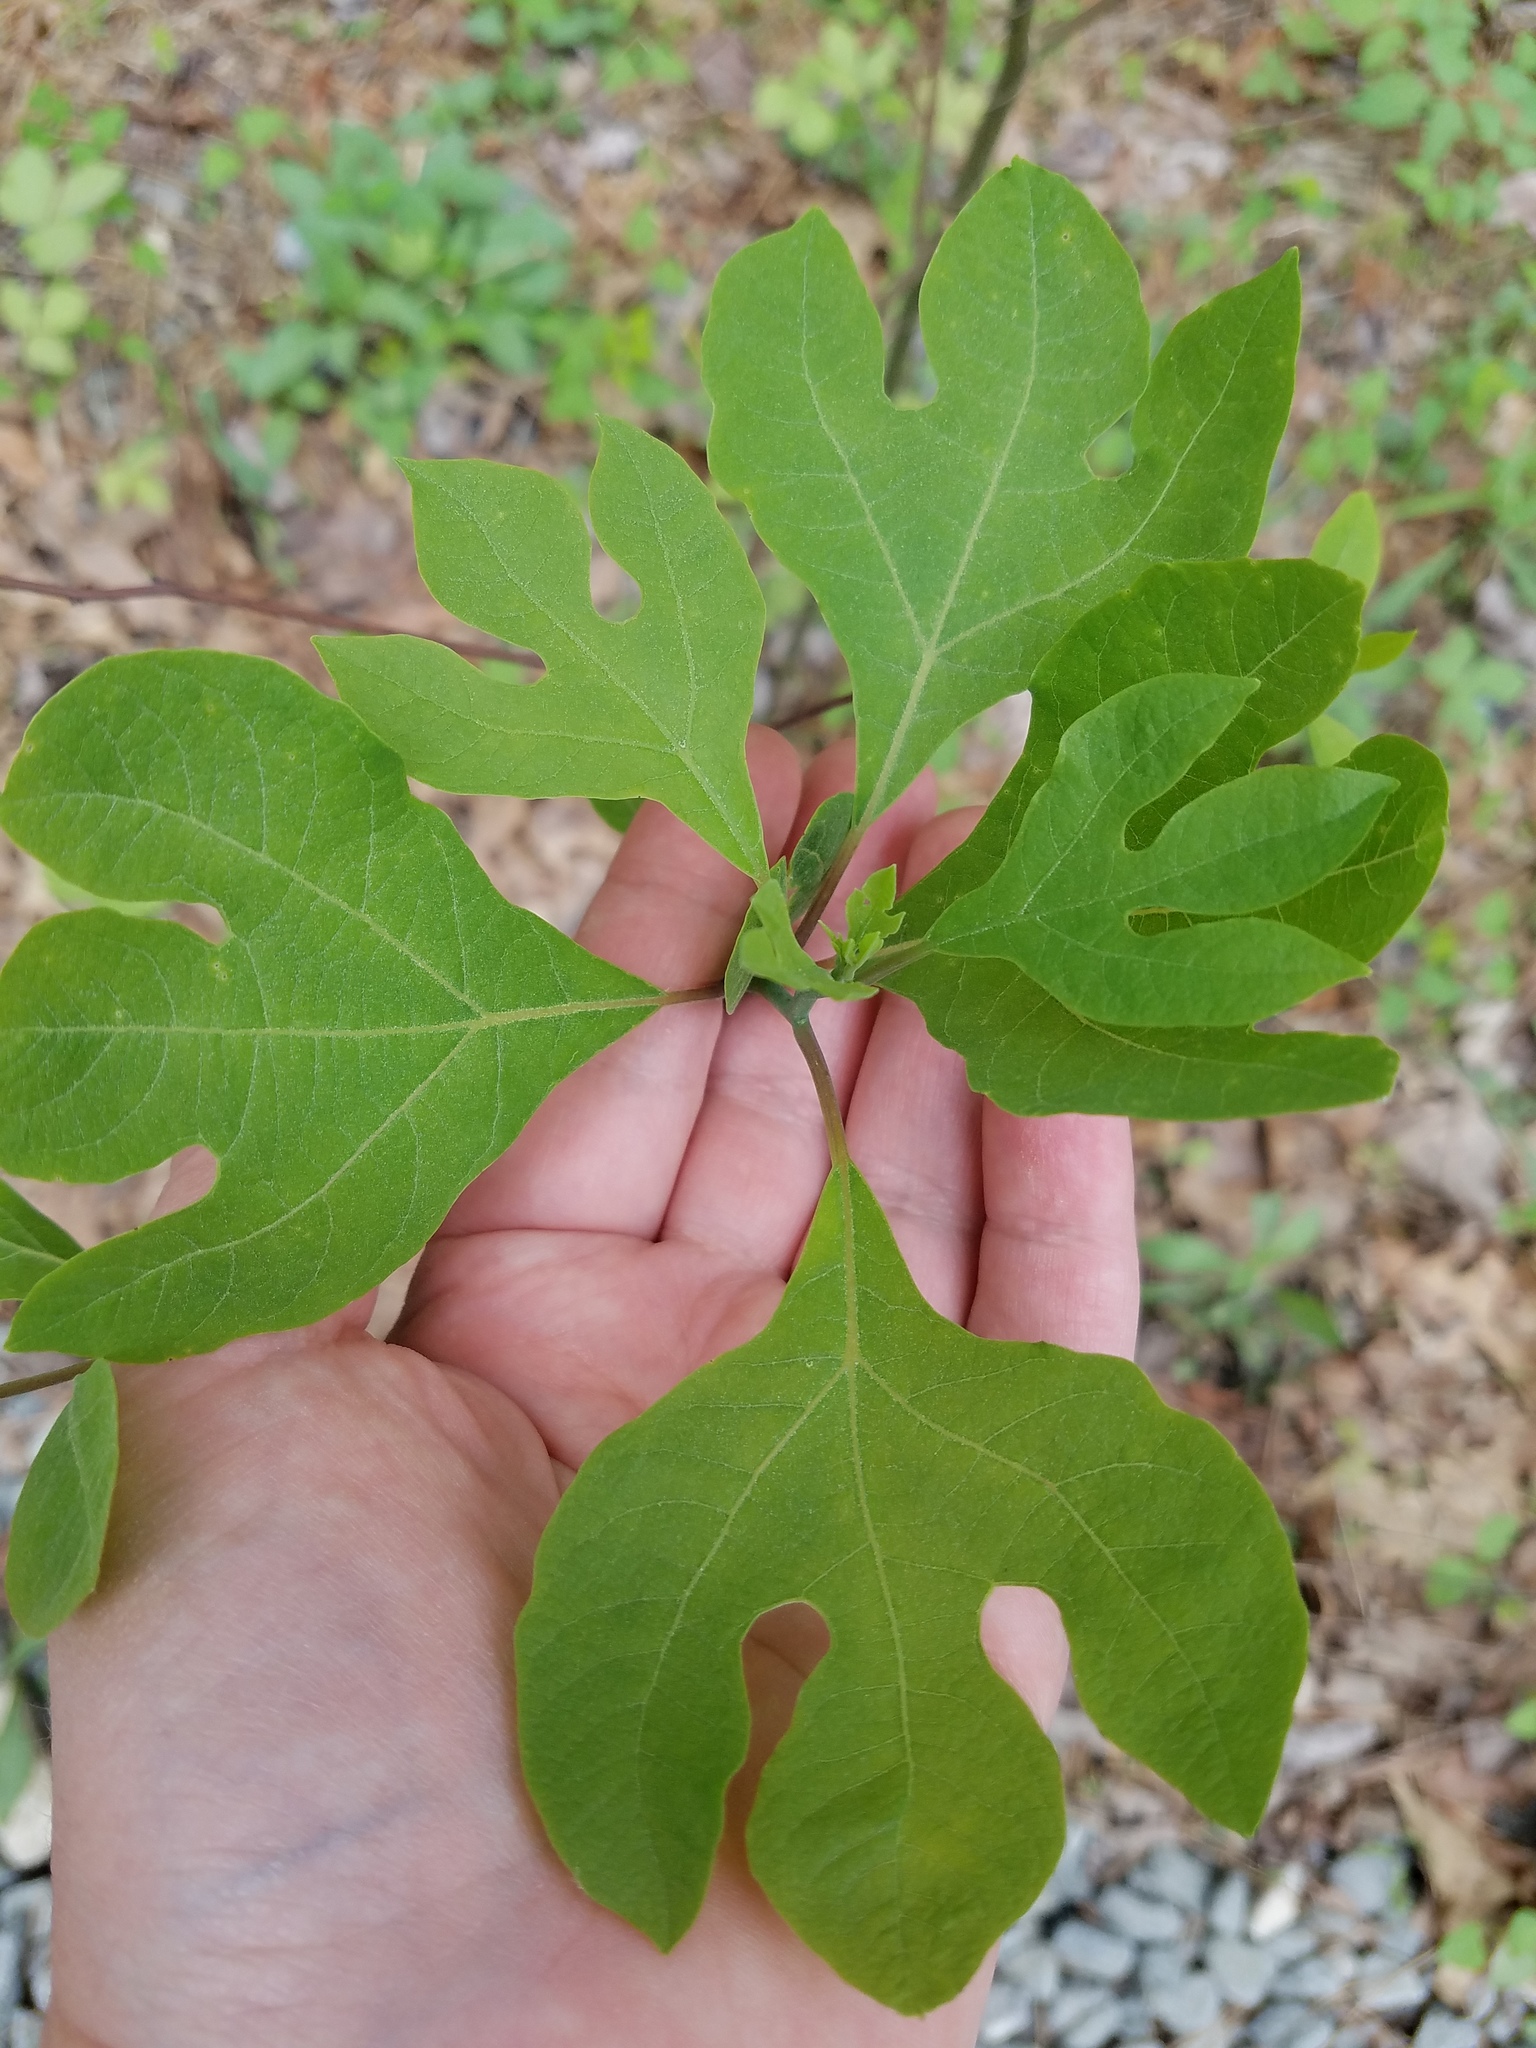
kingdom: Plantae
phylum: Tracheophyta
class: Magnoliopsida
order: Laurales
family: Lauraceae
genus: Sassafras
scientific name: Sassafras albidum
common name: Sassafras
